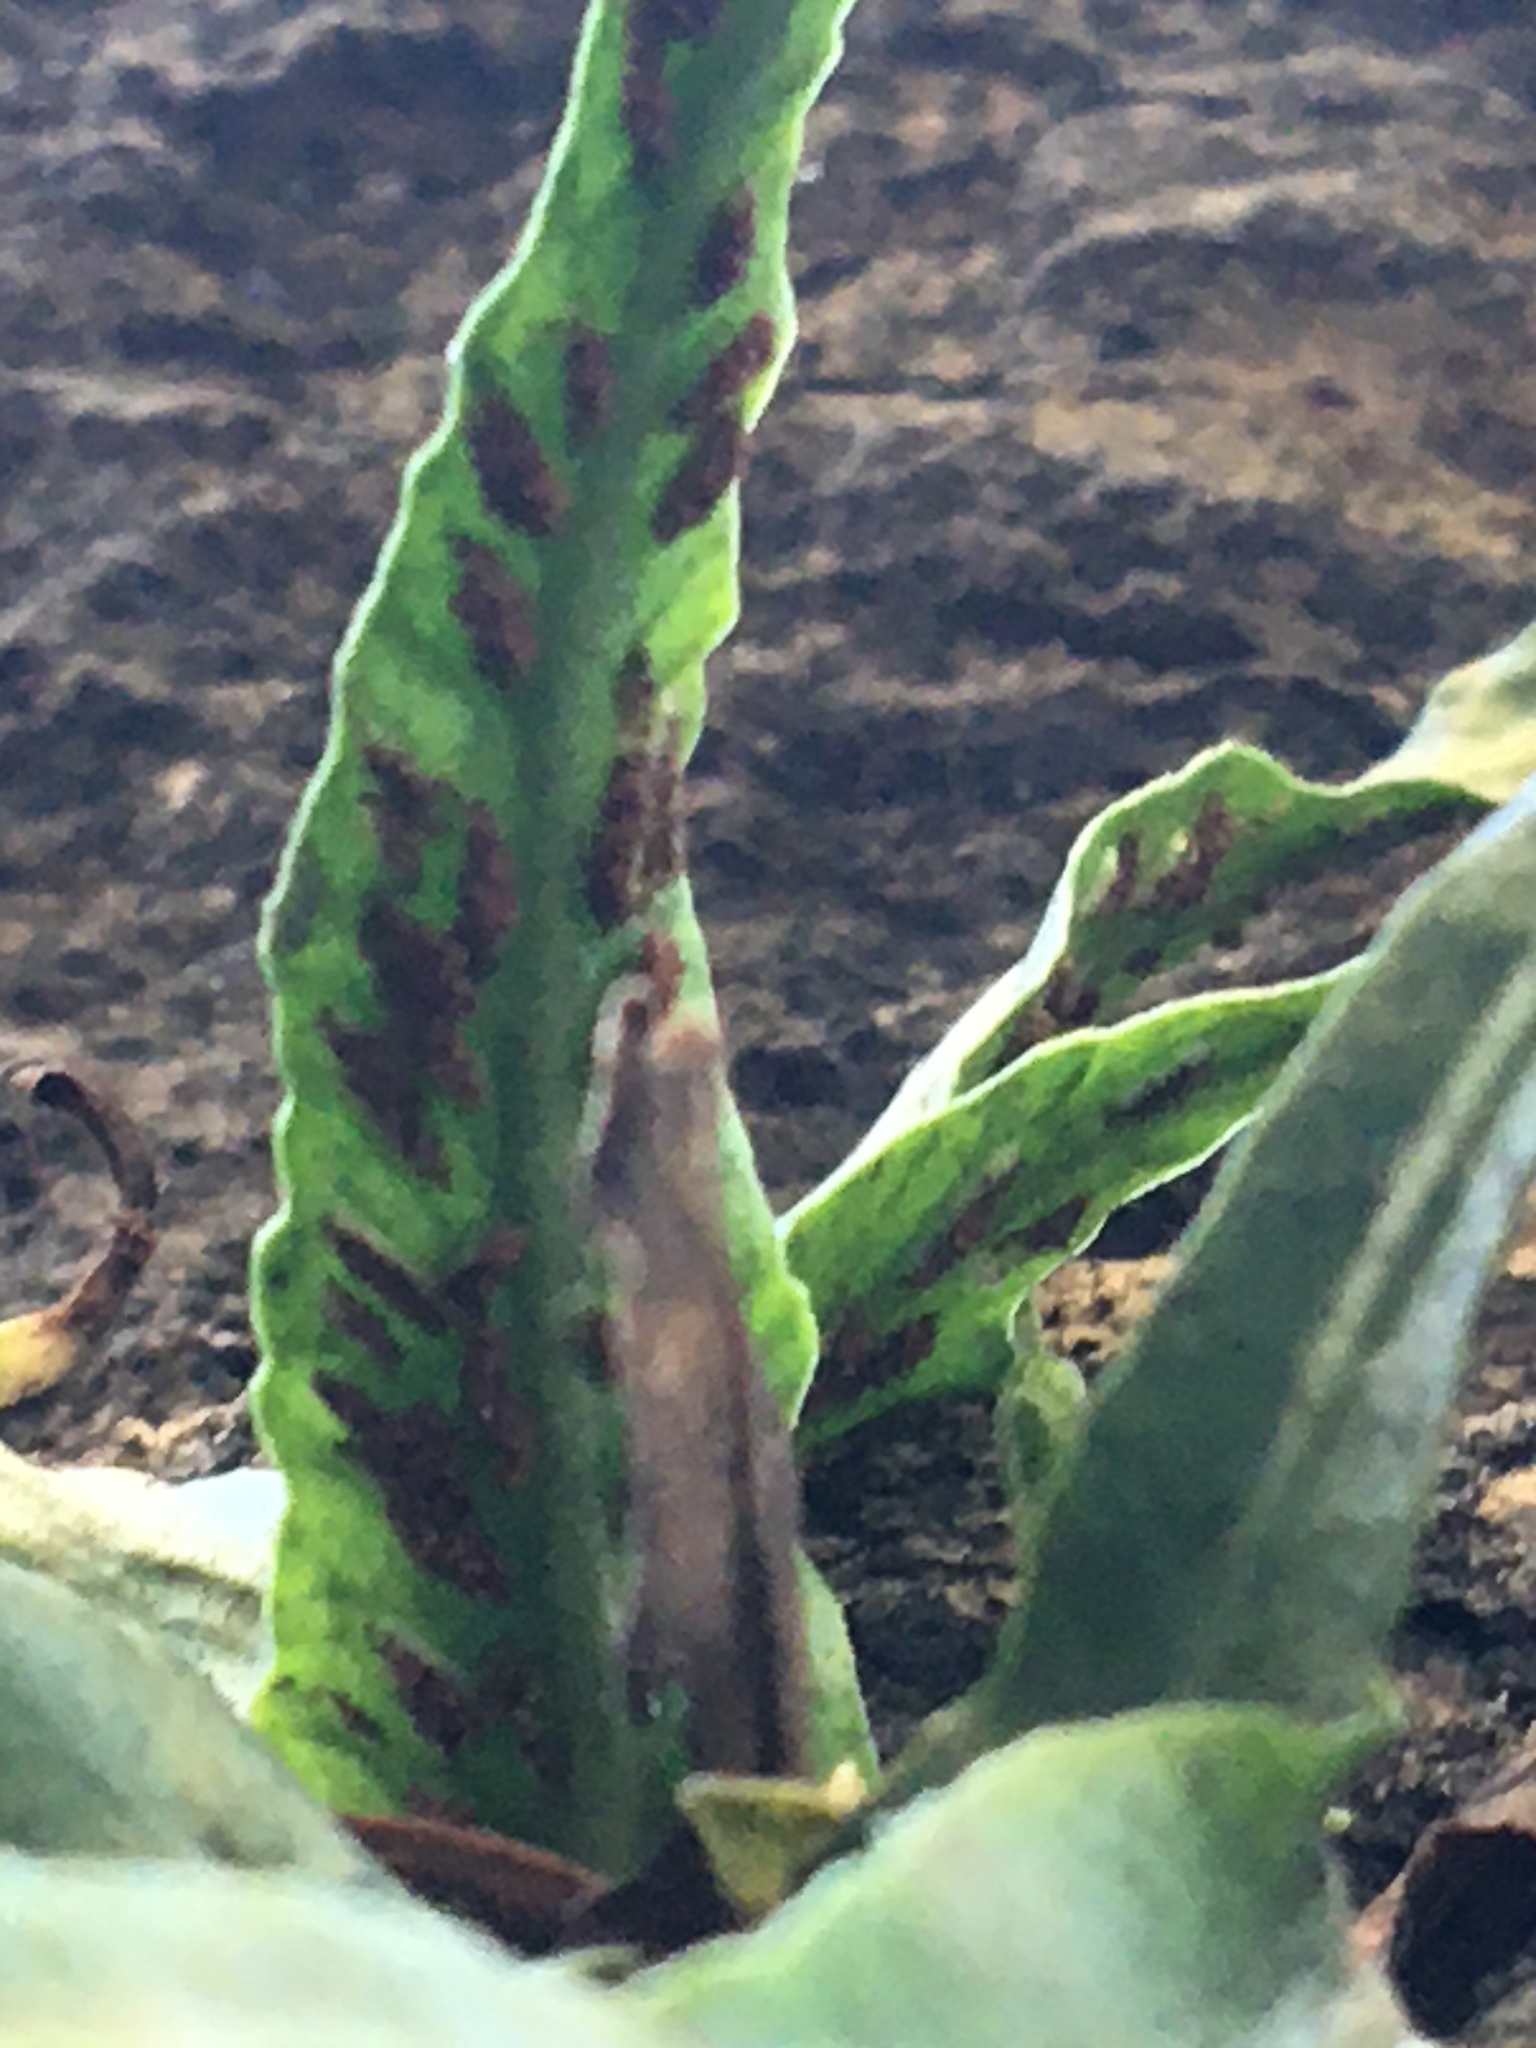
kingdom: Plantae
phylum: Tracheophyta
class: Polypodiopsida
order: Polypodiales
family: Aspleniaceae
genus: Asplenium
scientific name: Asplenium rhizophyllum
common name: Walking fern
